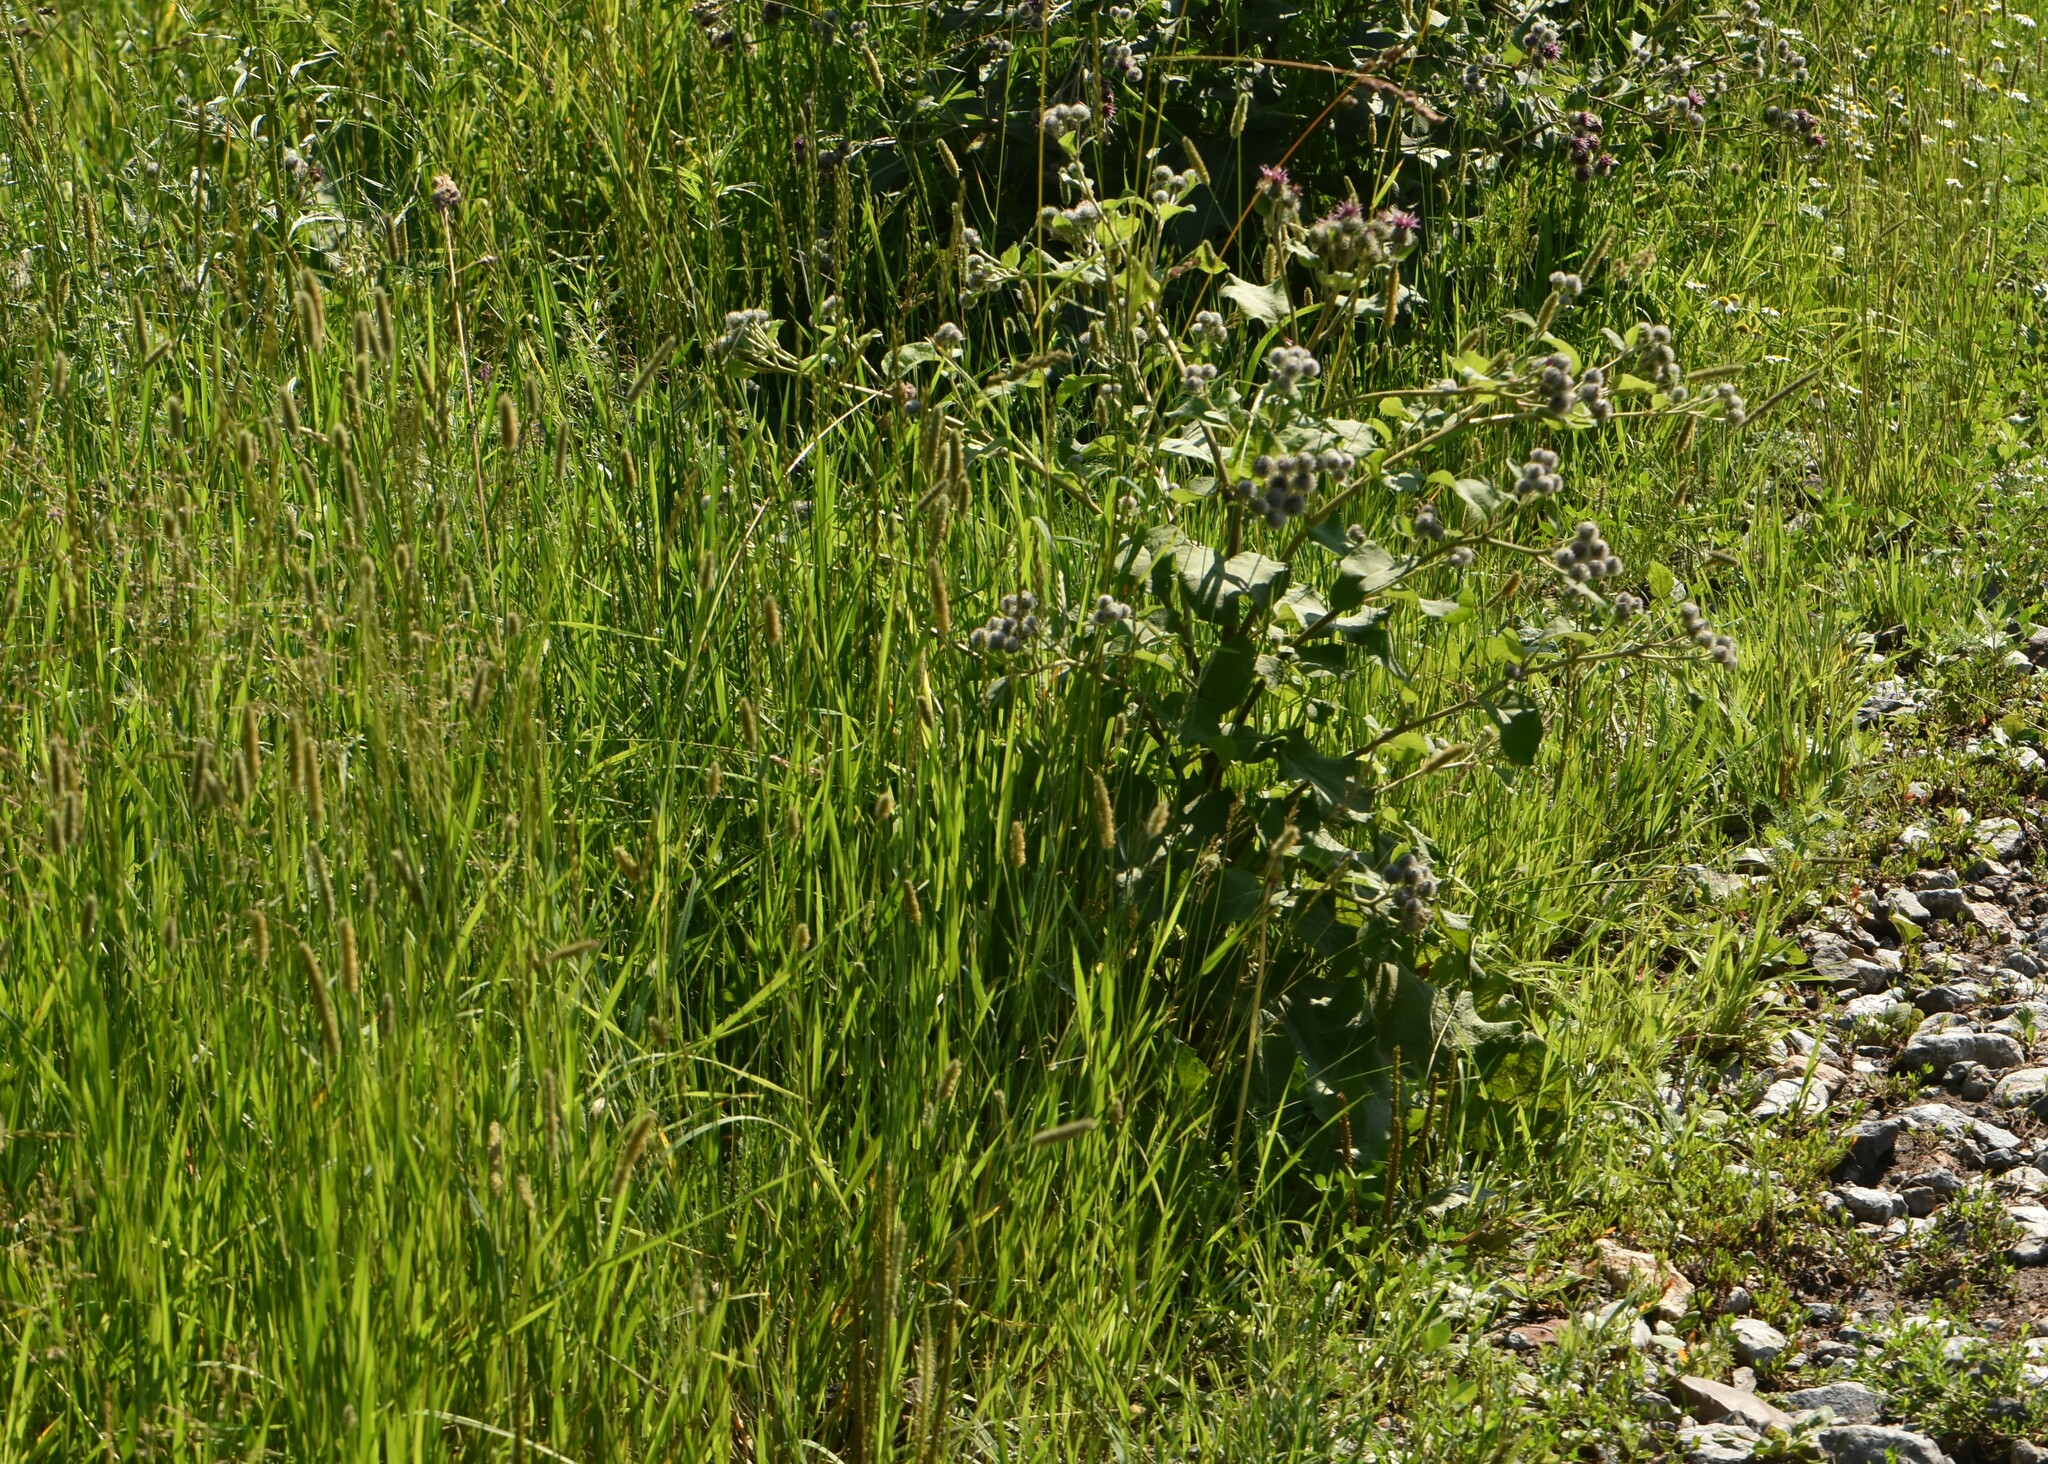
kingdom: Plantae
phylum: Tracheophyta
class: Magnoliopsida
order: Asterales
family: Asteraceae
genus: Arctium
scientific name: Arctium tomentosum
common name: Woolly burdock
